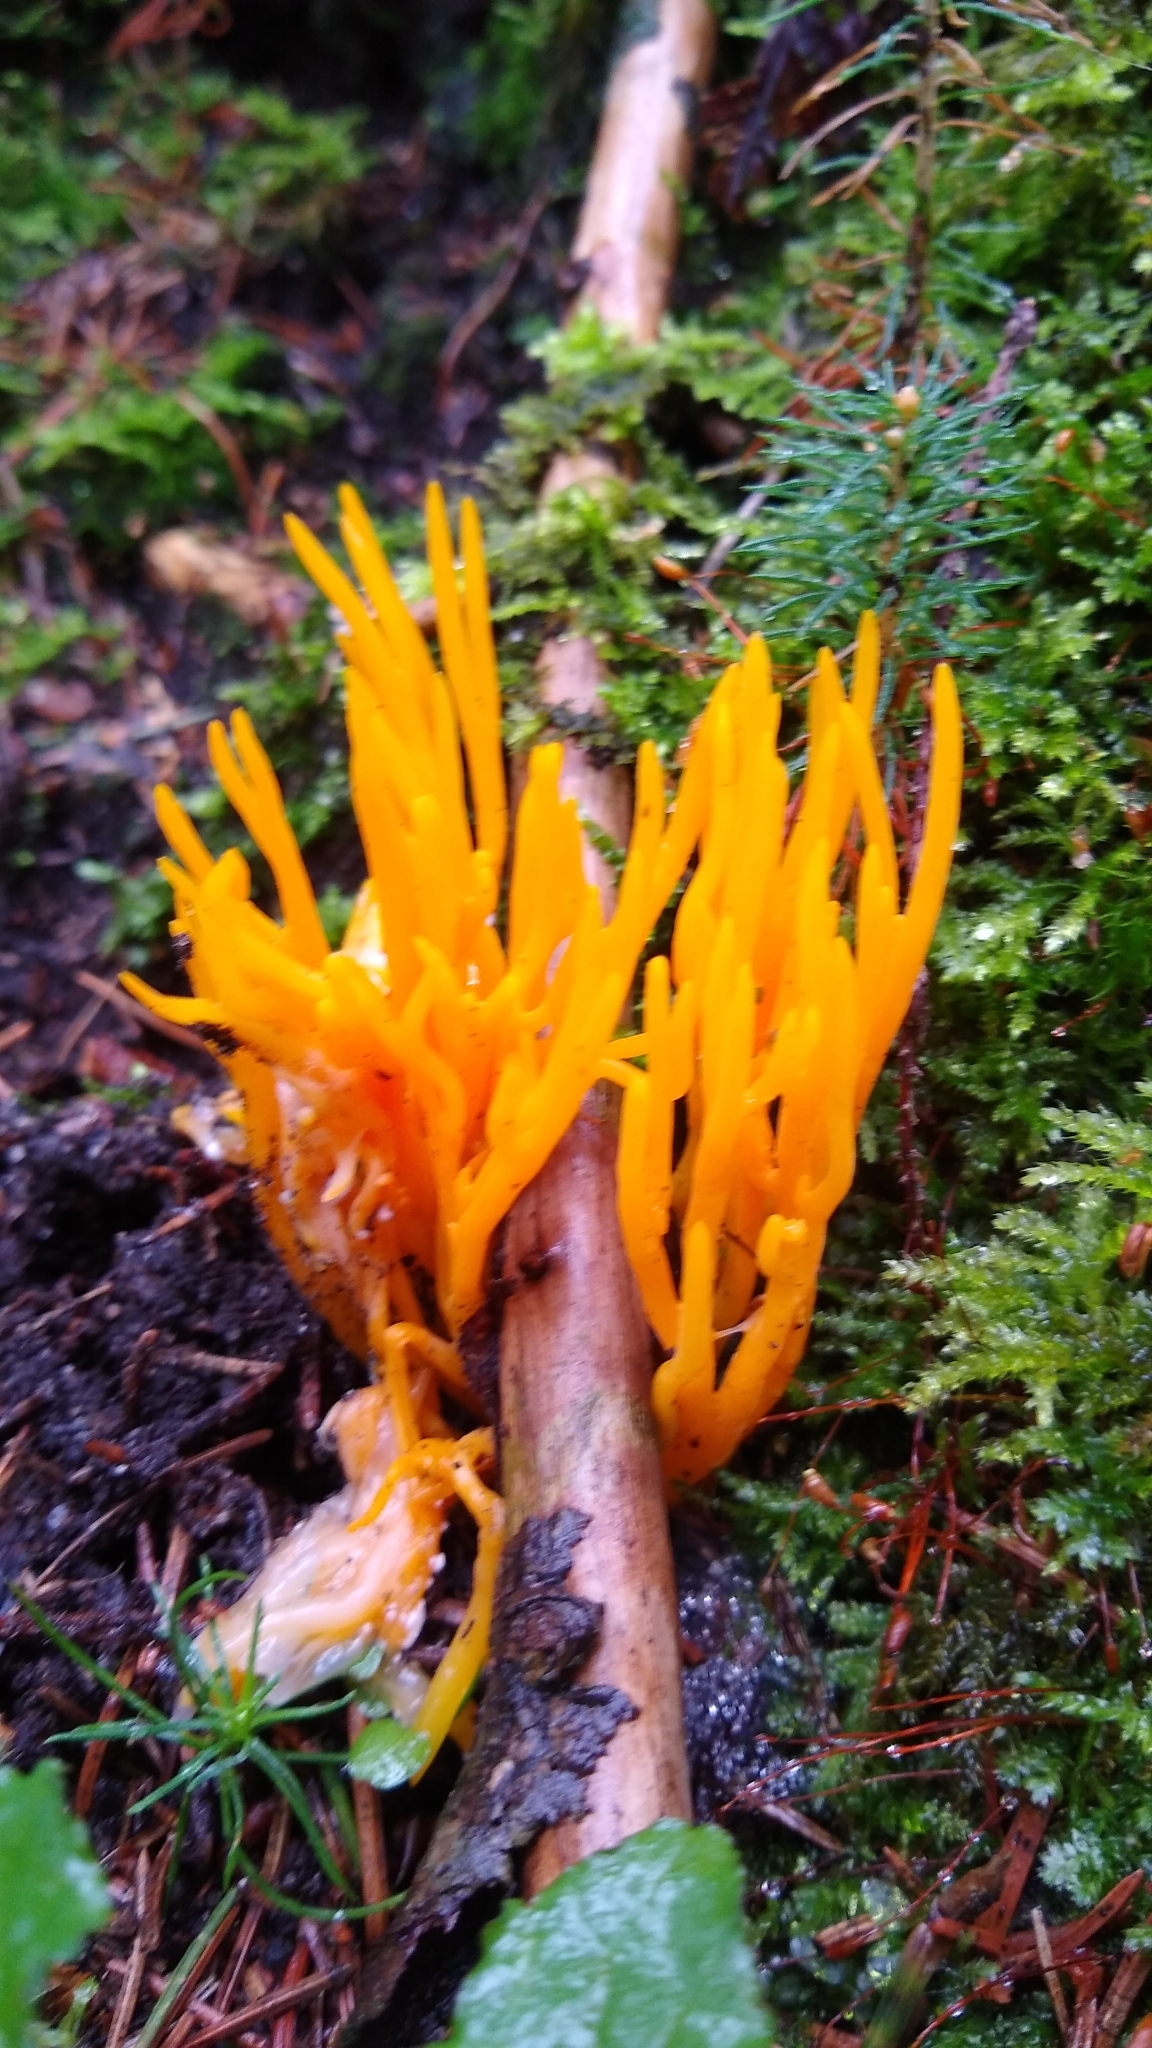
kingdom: Fungi
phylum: Basidiomycota
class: Dacrymycetes
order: Dacrymycetales
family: Dacrymycetaceae
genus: Calocera
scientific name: Calocera viscosa
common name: Yellow stagshorn
